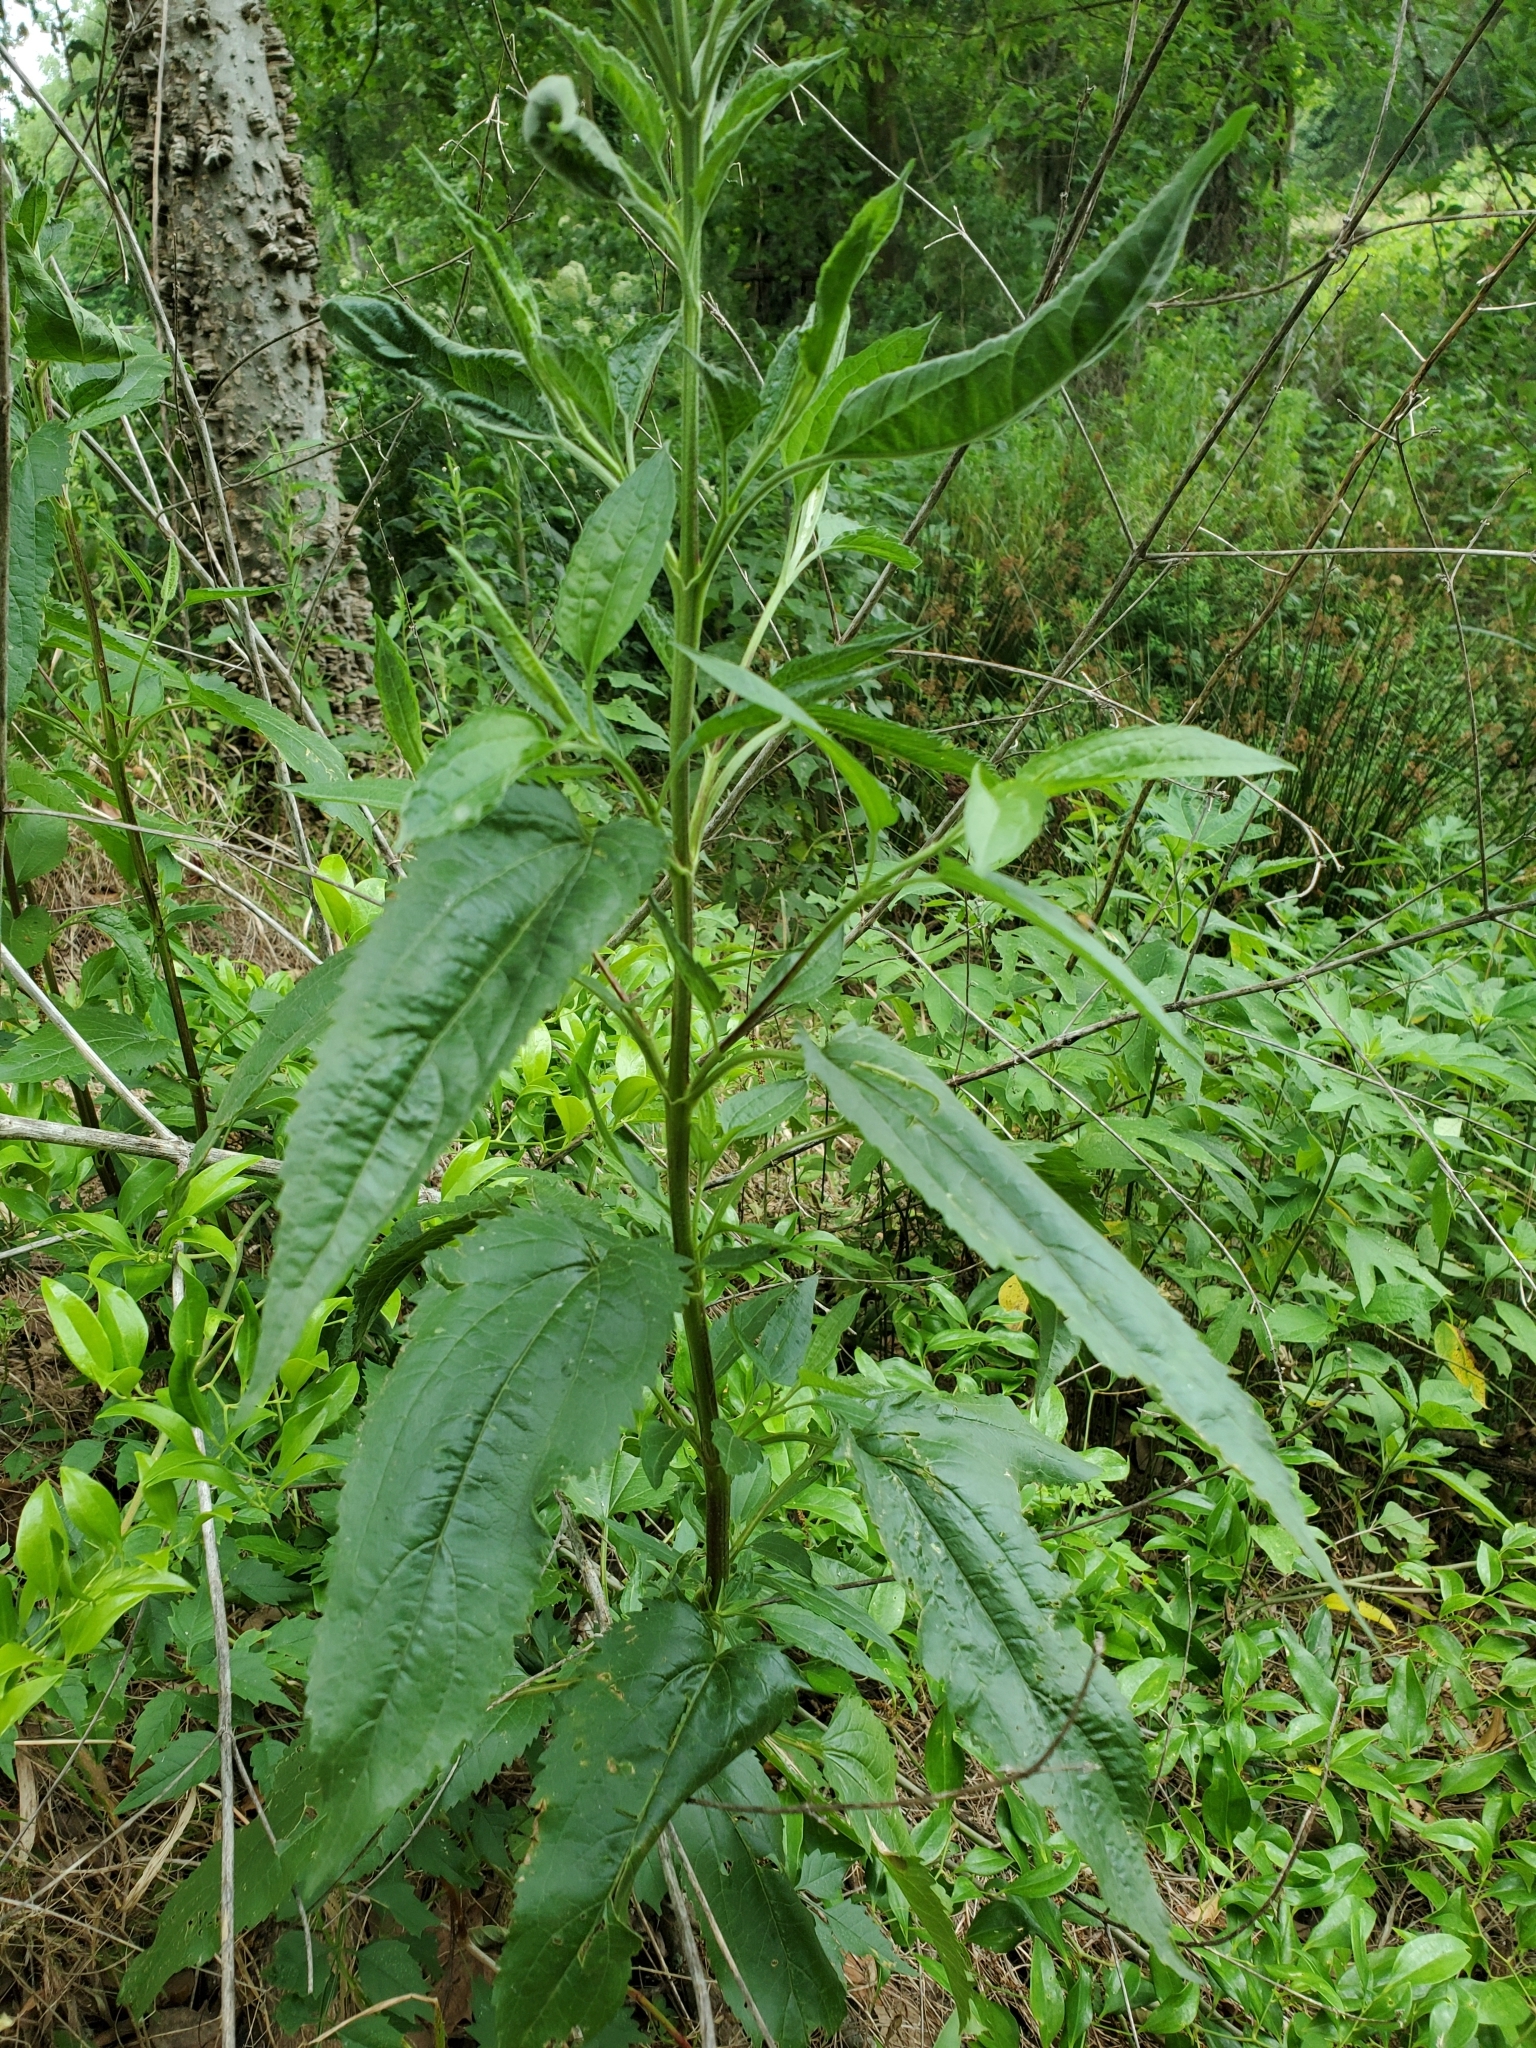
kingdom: Plantae
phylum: Tracheophyta
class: Magnoliopsida
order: Asterales
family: Asteraceae
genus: Eupatorium
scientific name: Eupatorium serotinum
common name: Late boneset
